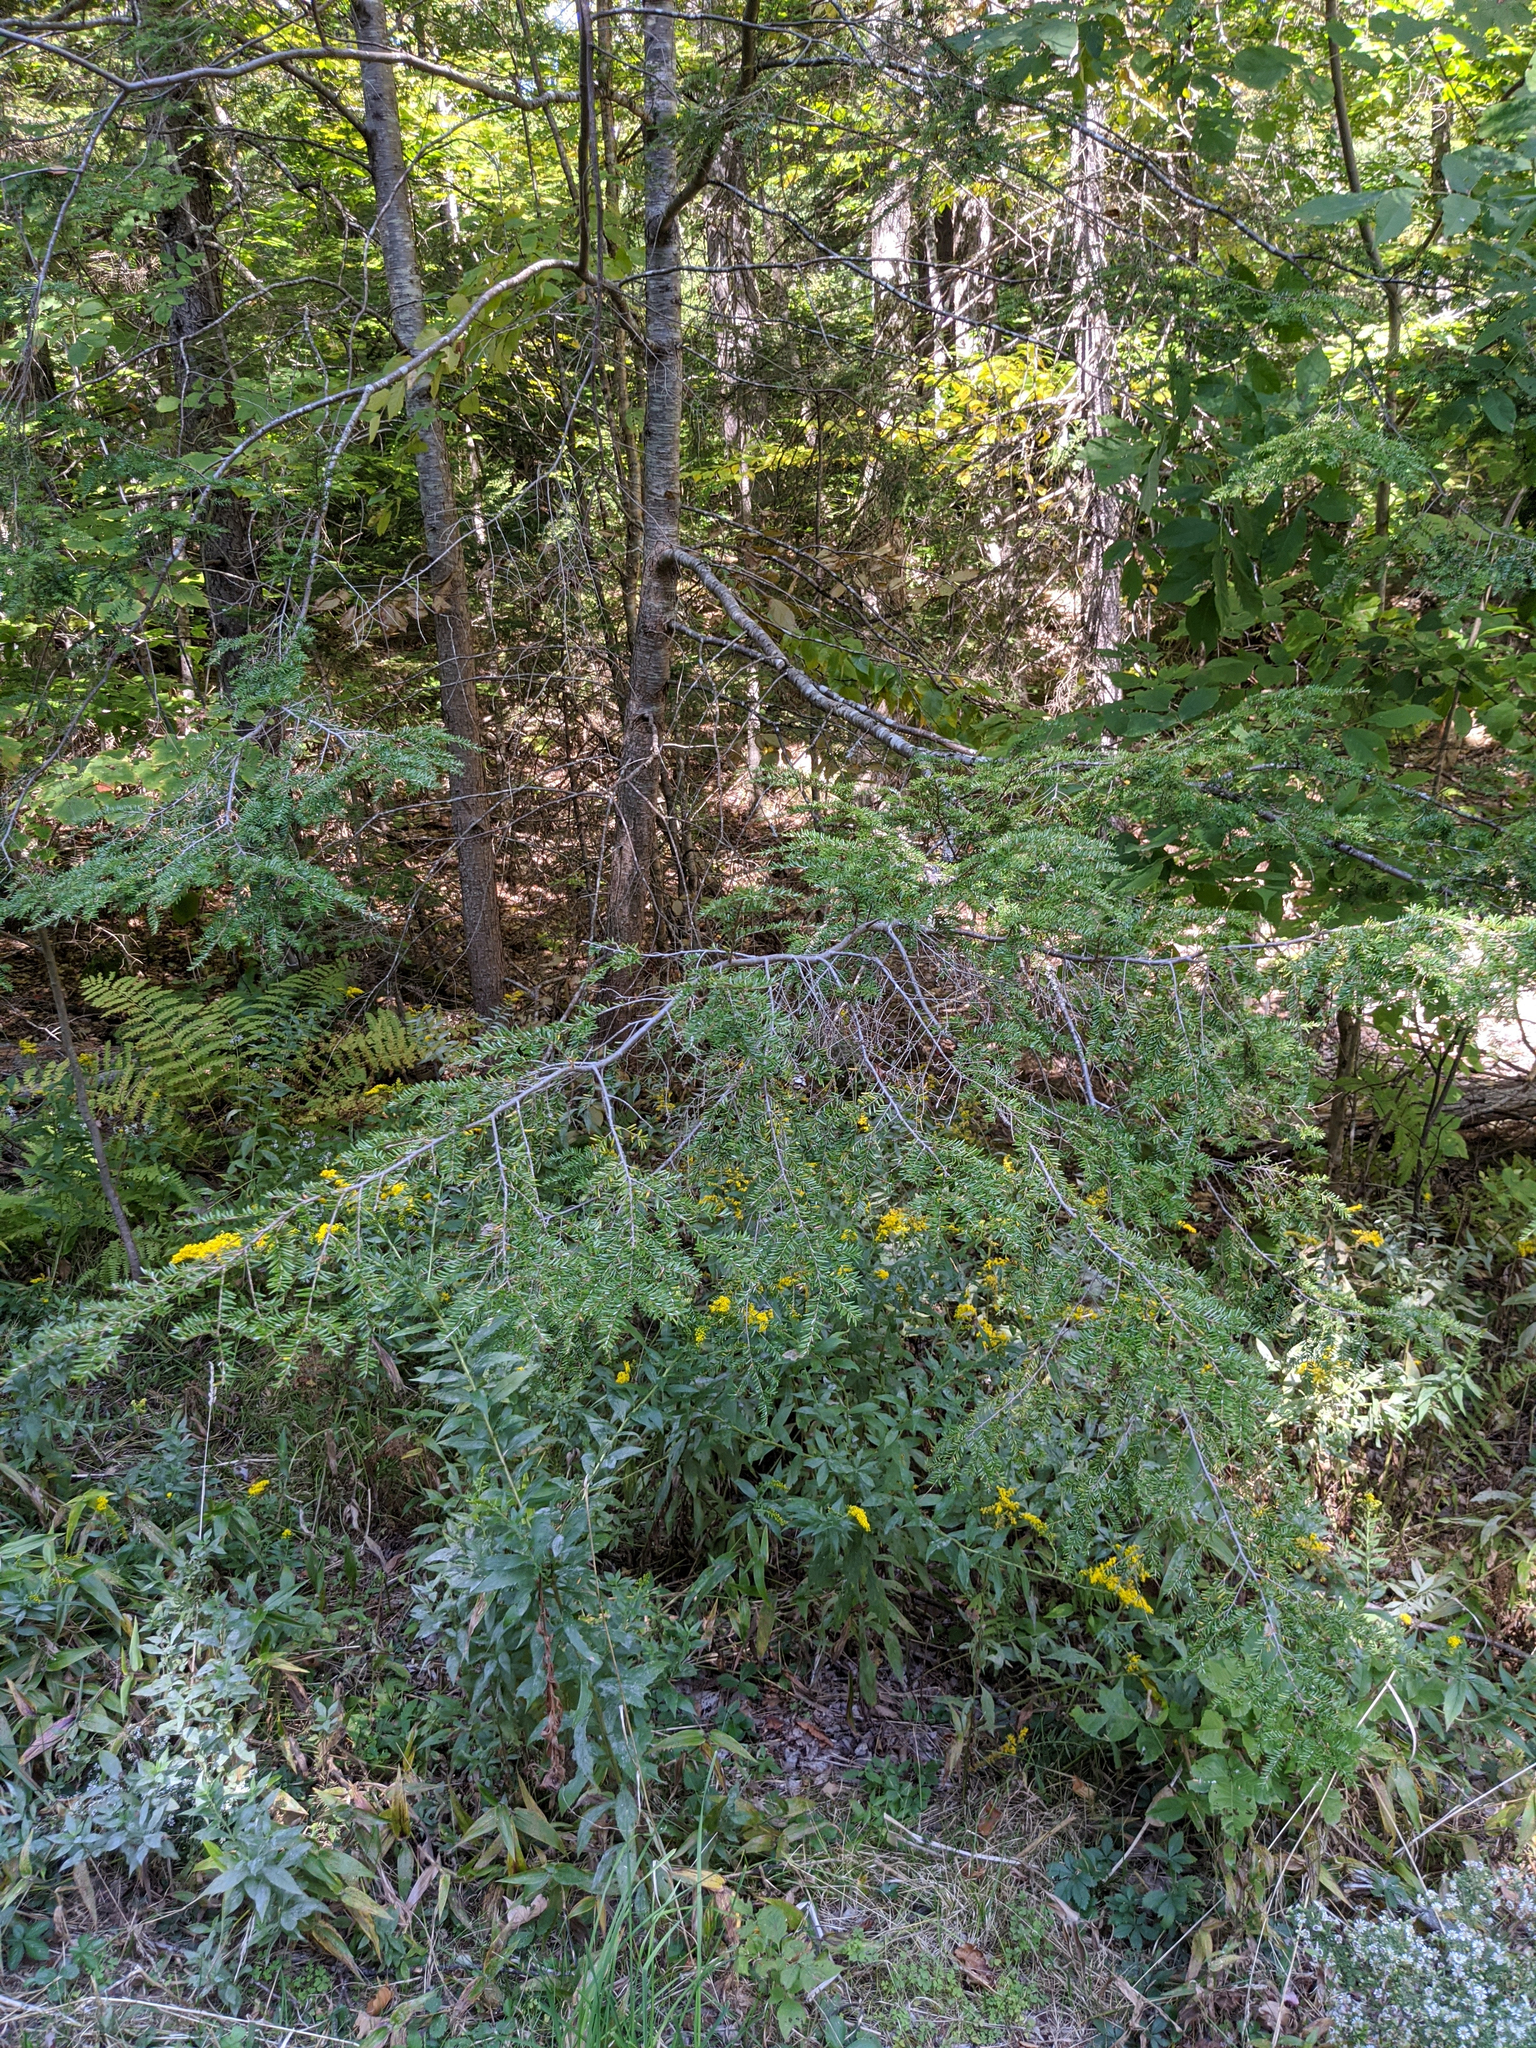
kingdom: Plantae
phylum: Tracheophyta
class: Pinopsida
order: Pinales
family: Pinaceae
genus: Tsuga
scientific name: Tsuga canadensis
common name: Eastern hemlock
